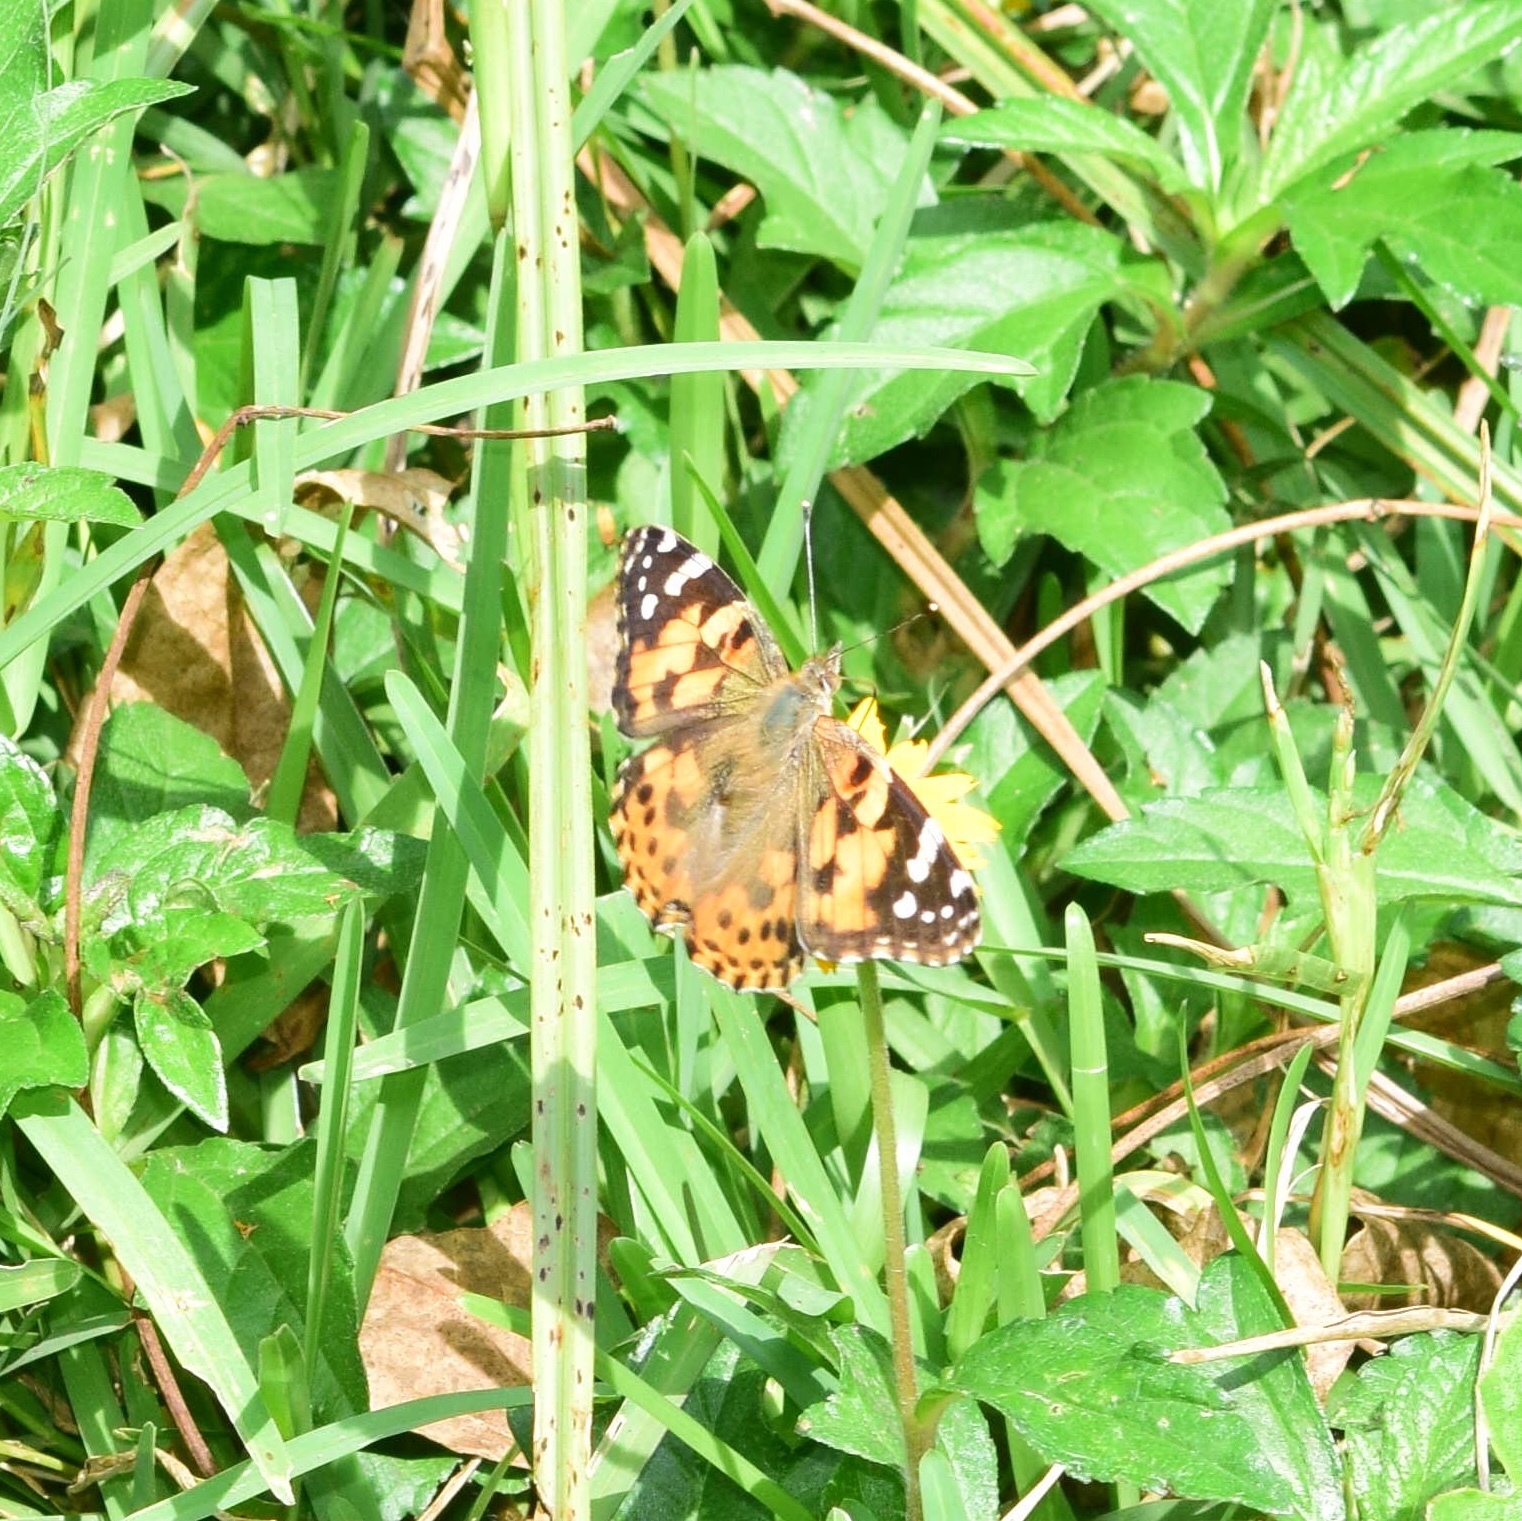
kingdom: Animalia
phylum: Arthropoda
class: Insecta
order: Lepidoptera
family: Nymphalidae
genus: Vanessa
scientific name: Vanessa cardui
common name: Painted lady
